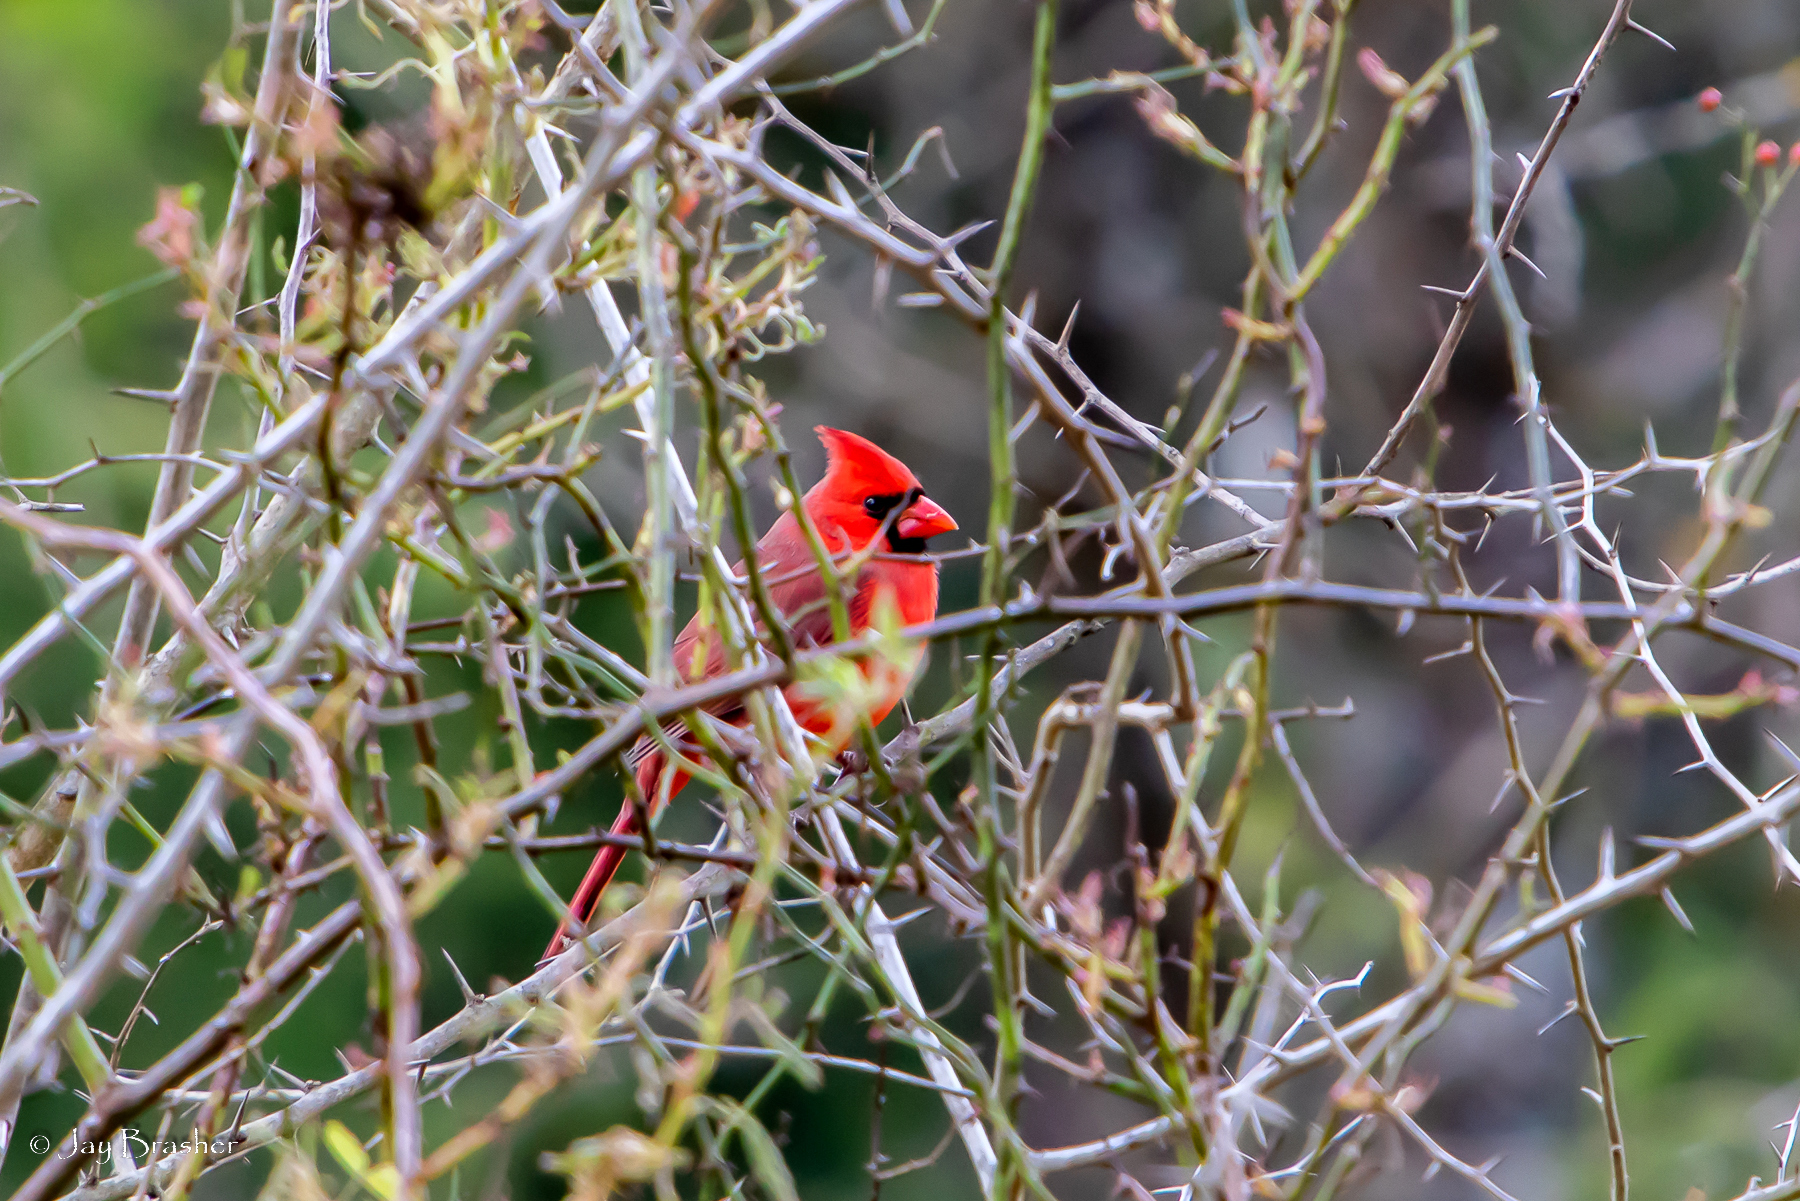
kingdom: Animalia
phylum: Chordata
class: Aves
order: Passeriformes
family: Cardinalidae
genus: Cardinalis
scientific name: Cardinalis cardinalis
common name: Northern cardinal
